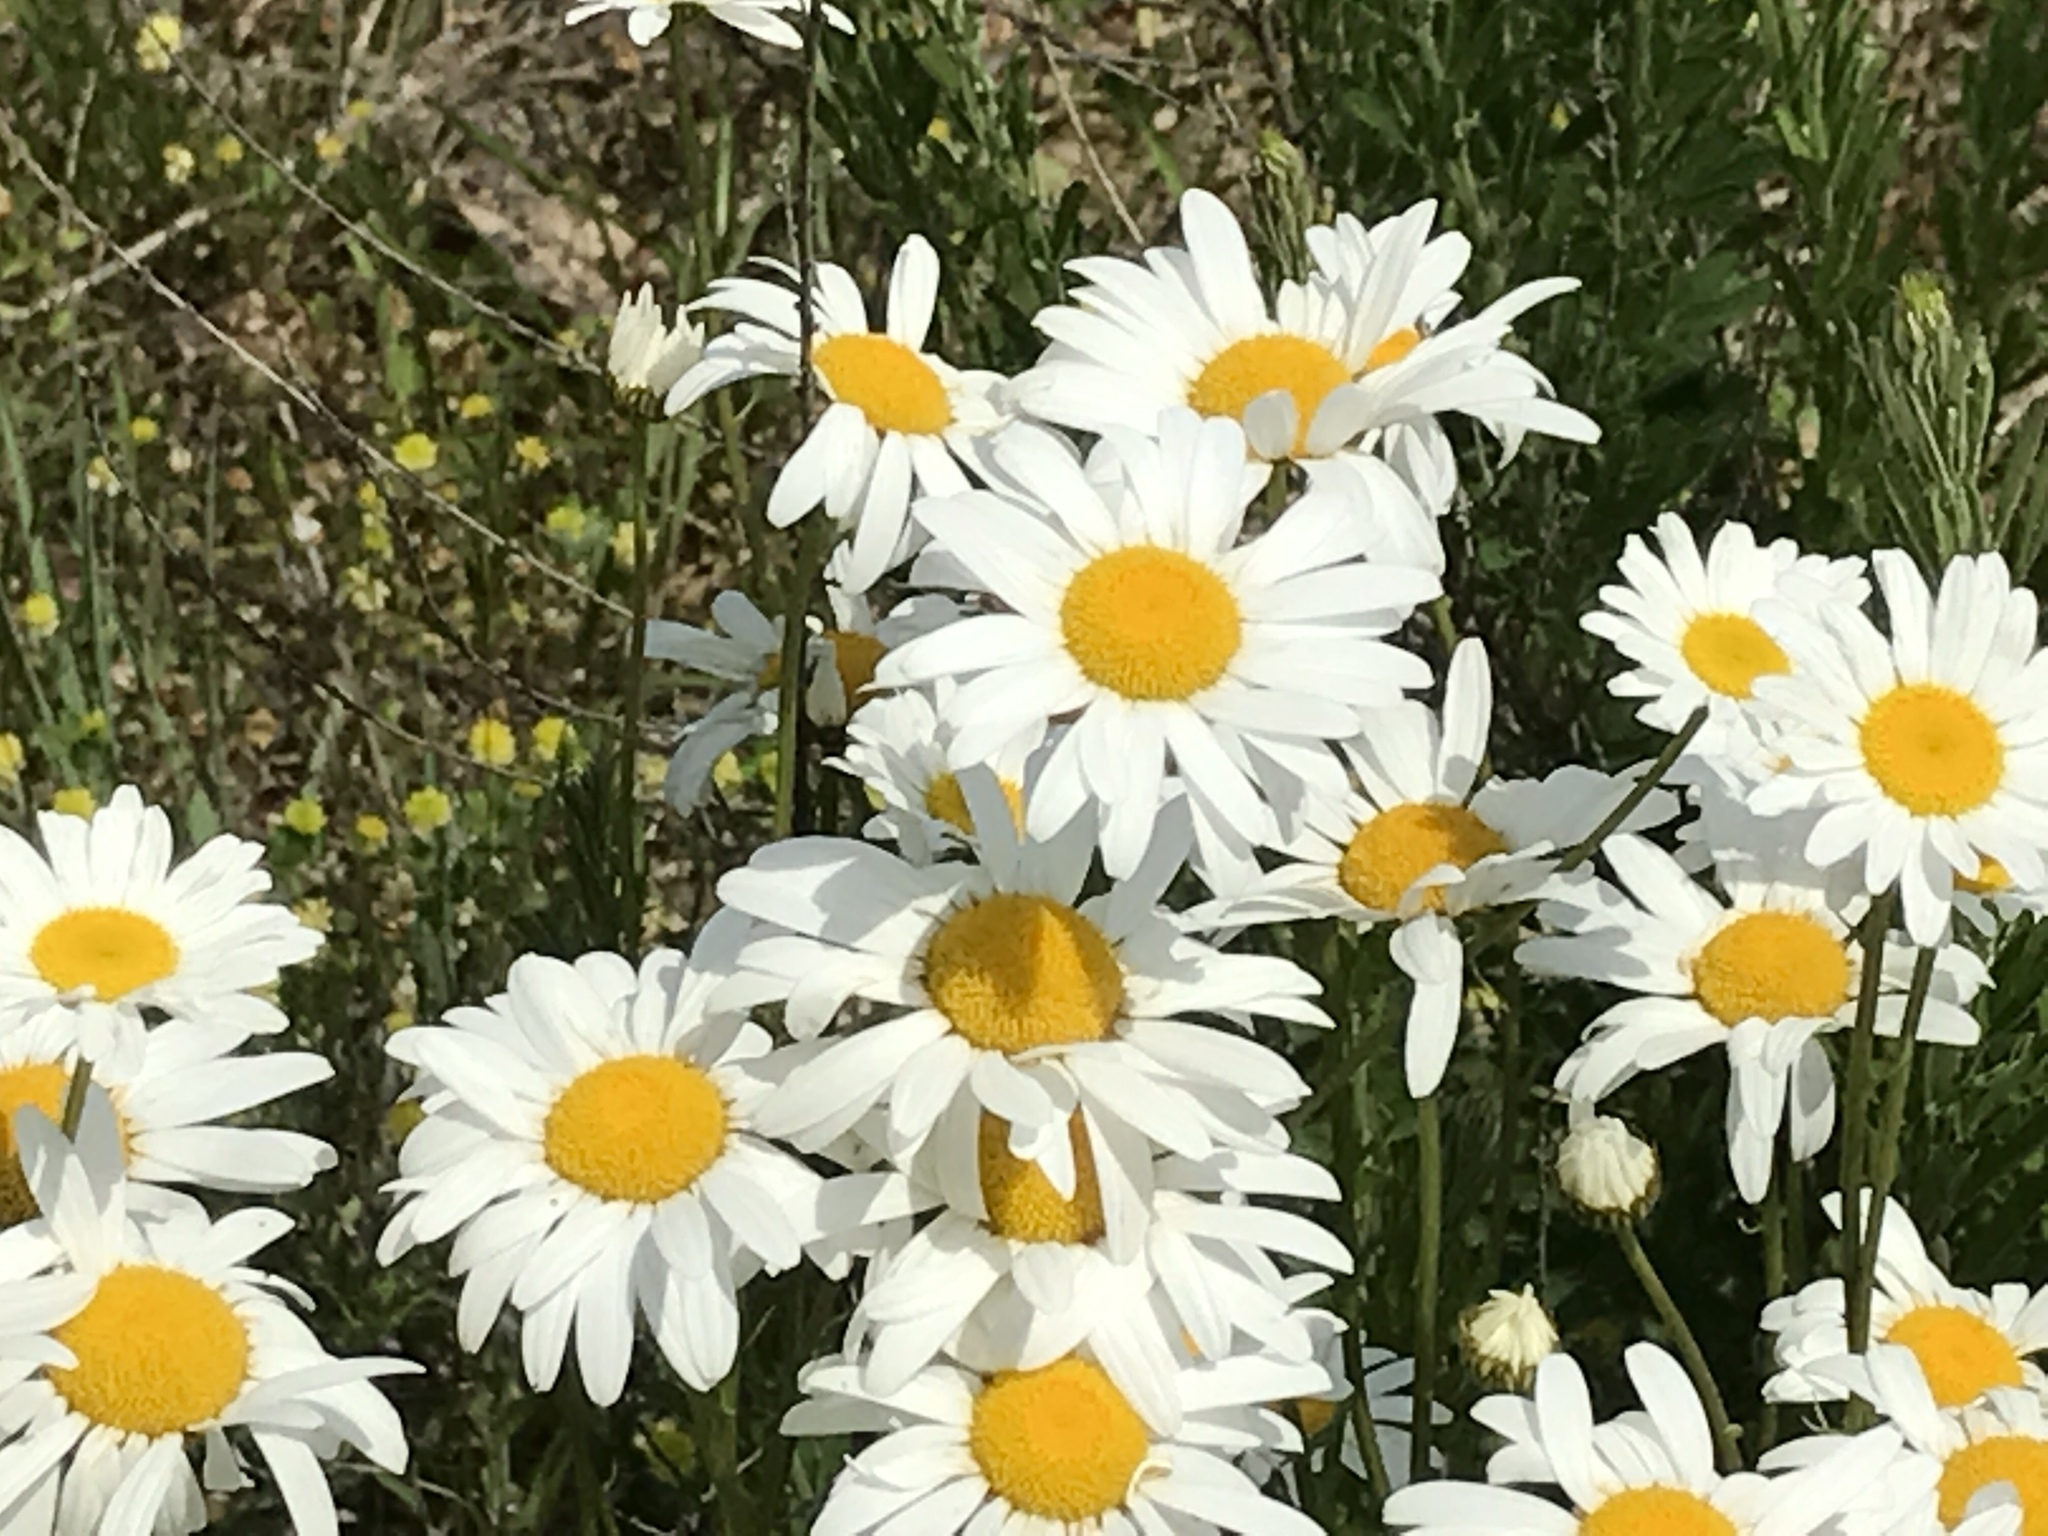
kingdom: Plantae
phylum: Tracheophyta
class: Magnoliopsida
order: Asterales
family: Asteraceae
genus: Leucanthemum
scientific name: Leucanthemum vulgare
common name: Oxeye daisy
